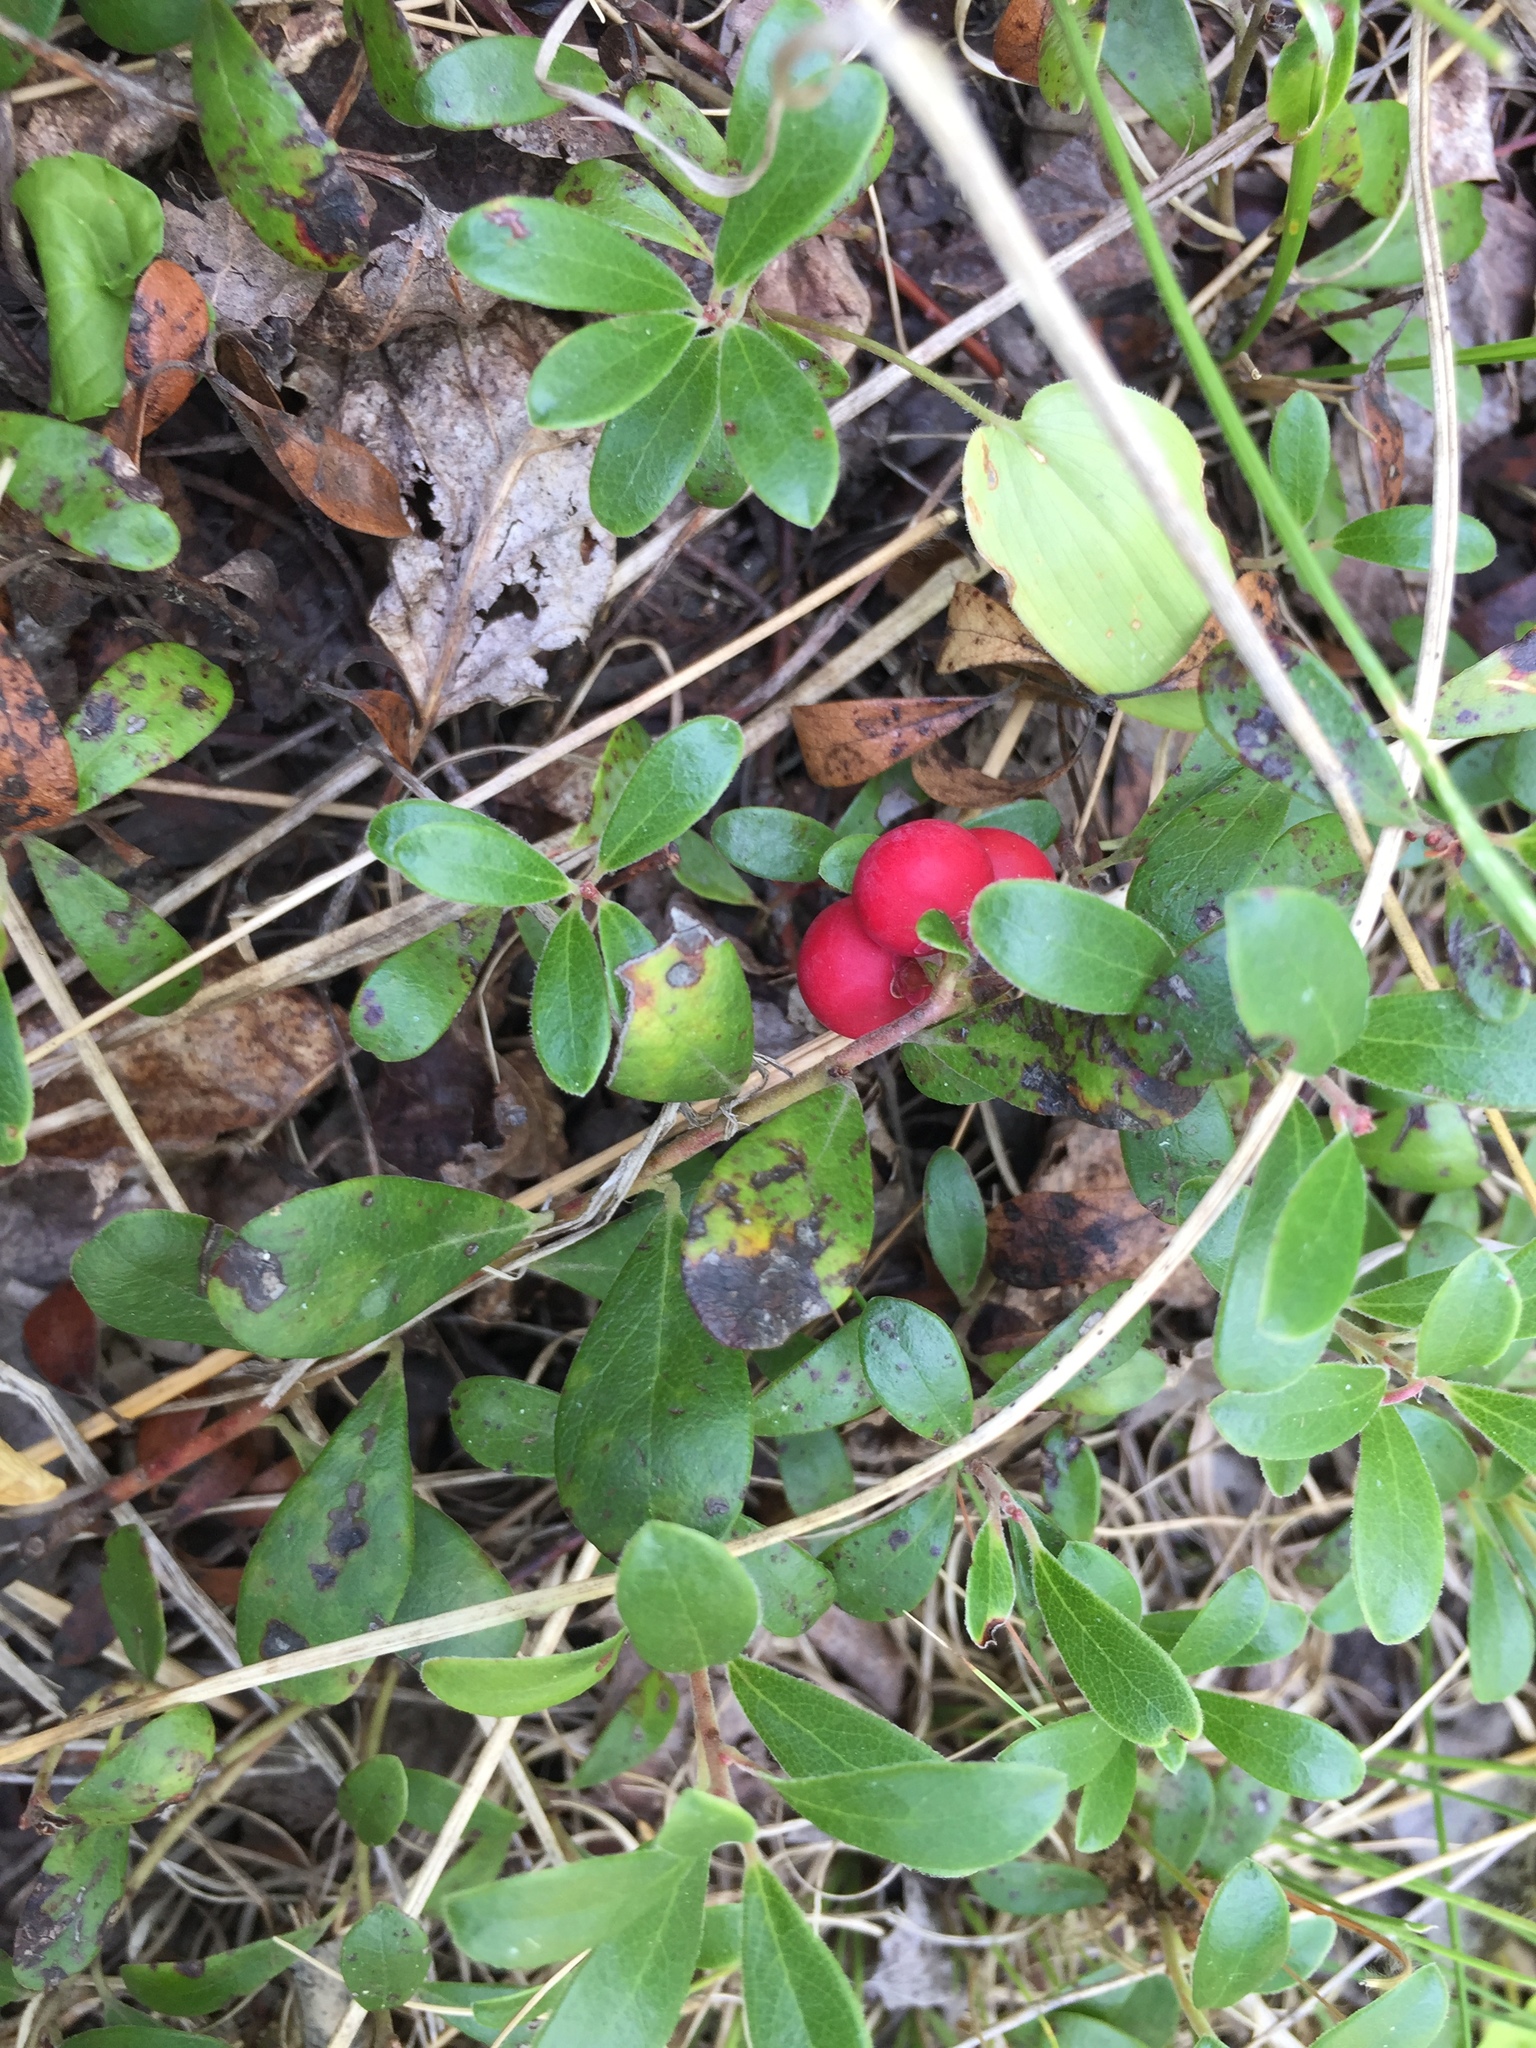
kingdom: Plantae
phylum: Tracheophyta
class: Magnoliopsida
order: Ericales
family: Ericaceae
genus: Arctostaphylos
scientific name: Arctostaphylos uva-ursi
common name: Bearberry
